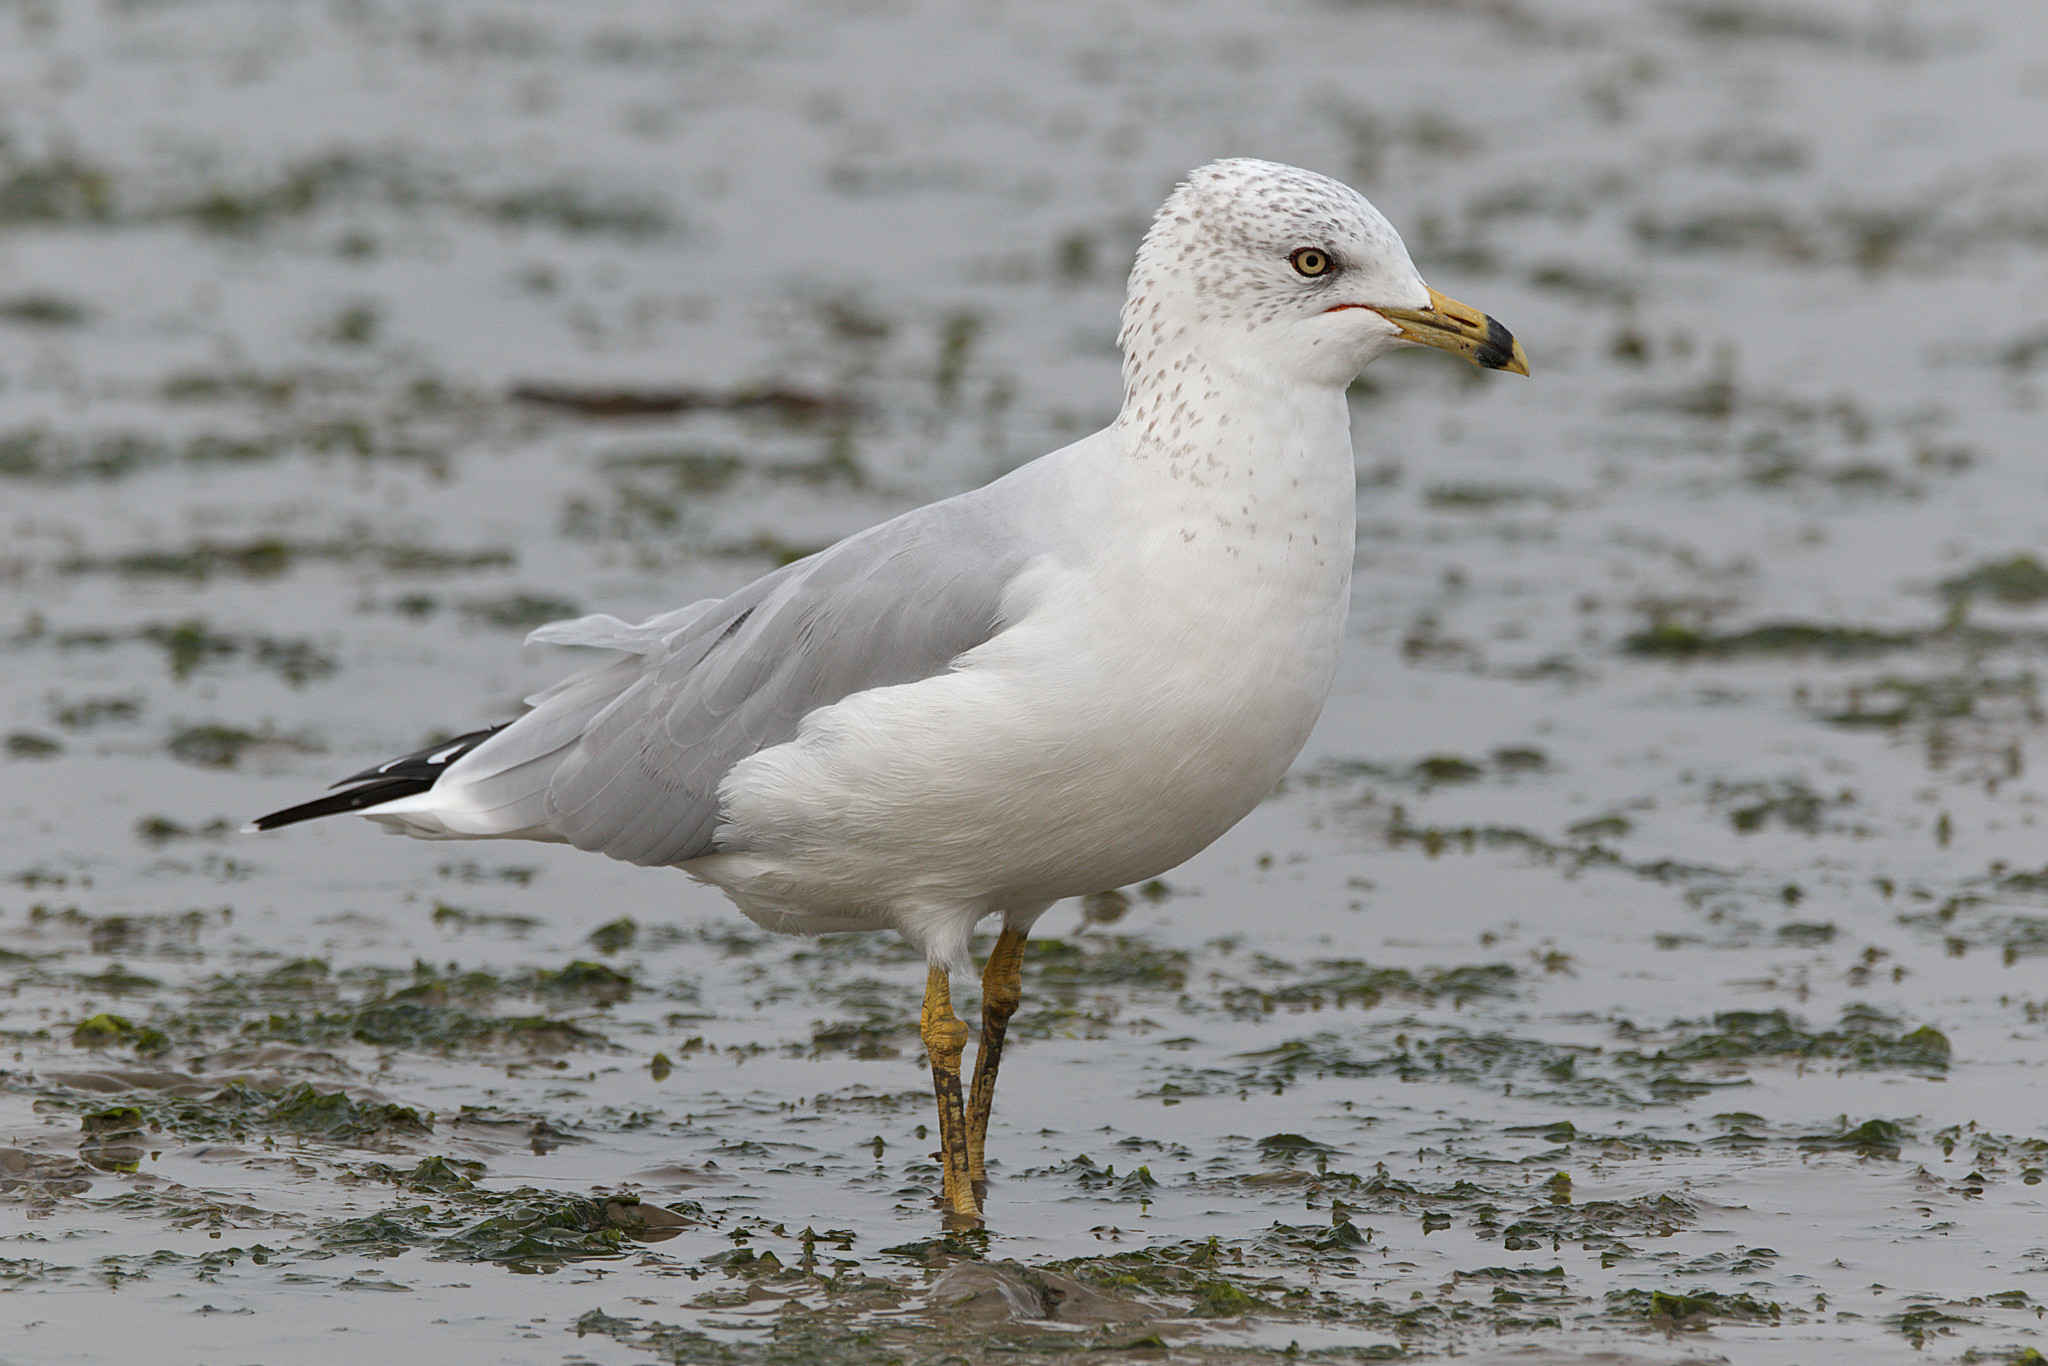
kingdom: Animalia
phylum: Chordata
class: Aves
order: Charadriiformes
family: Laridae
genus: Larus
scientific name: Larus delawarensis
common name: Ring-billed gull
